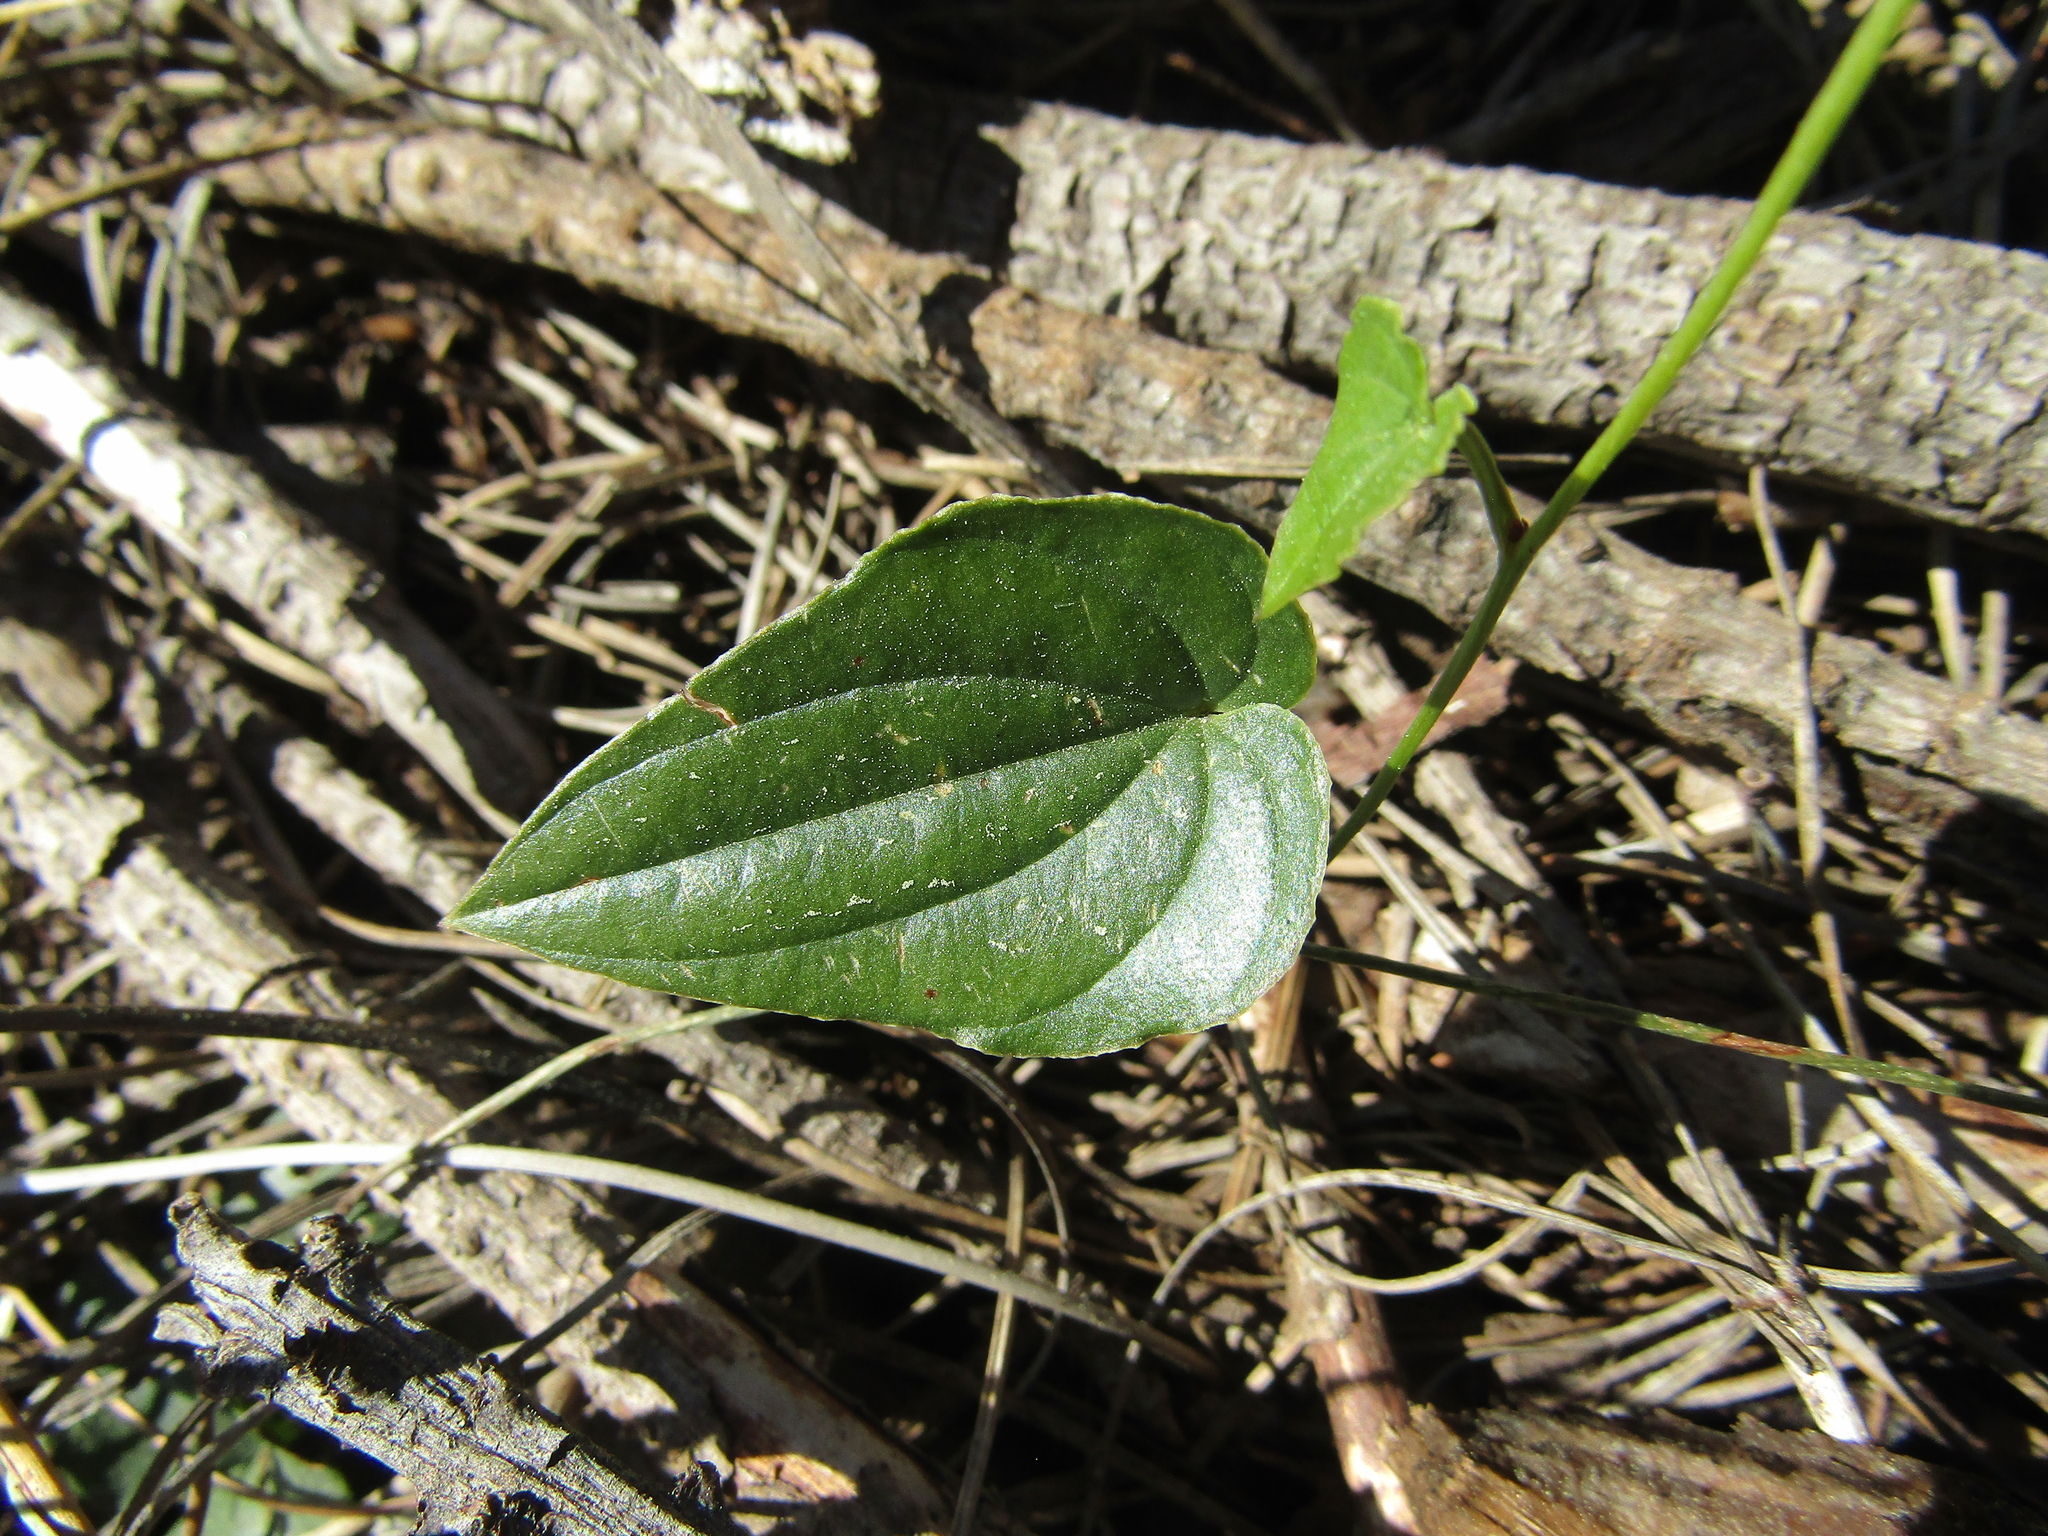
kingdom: Plantae
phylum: Tracheophyta
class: Liliopsida
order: Dioscoreales
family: Dioscoreaceae
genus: Dioscorea
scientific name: Dioscorea humifusa
